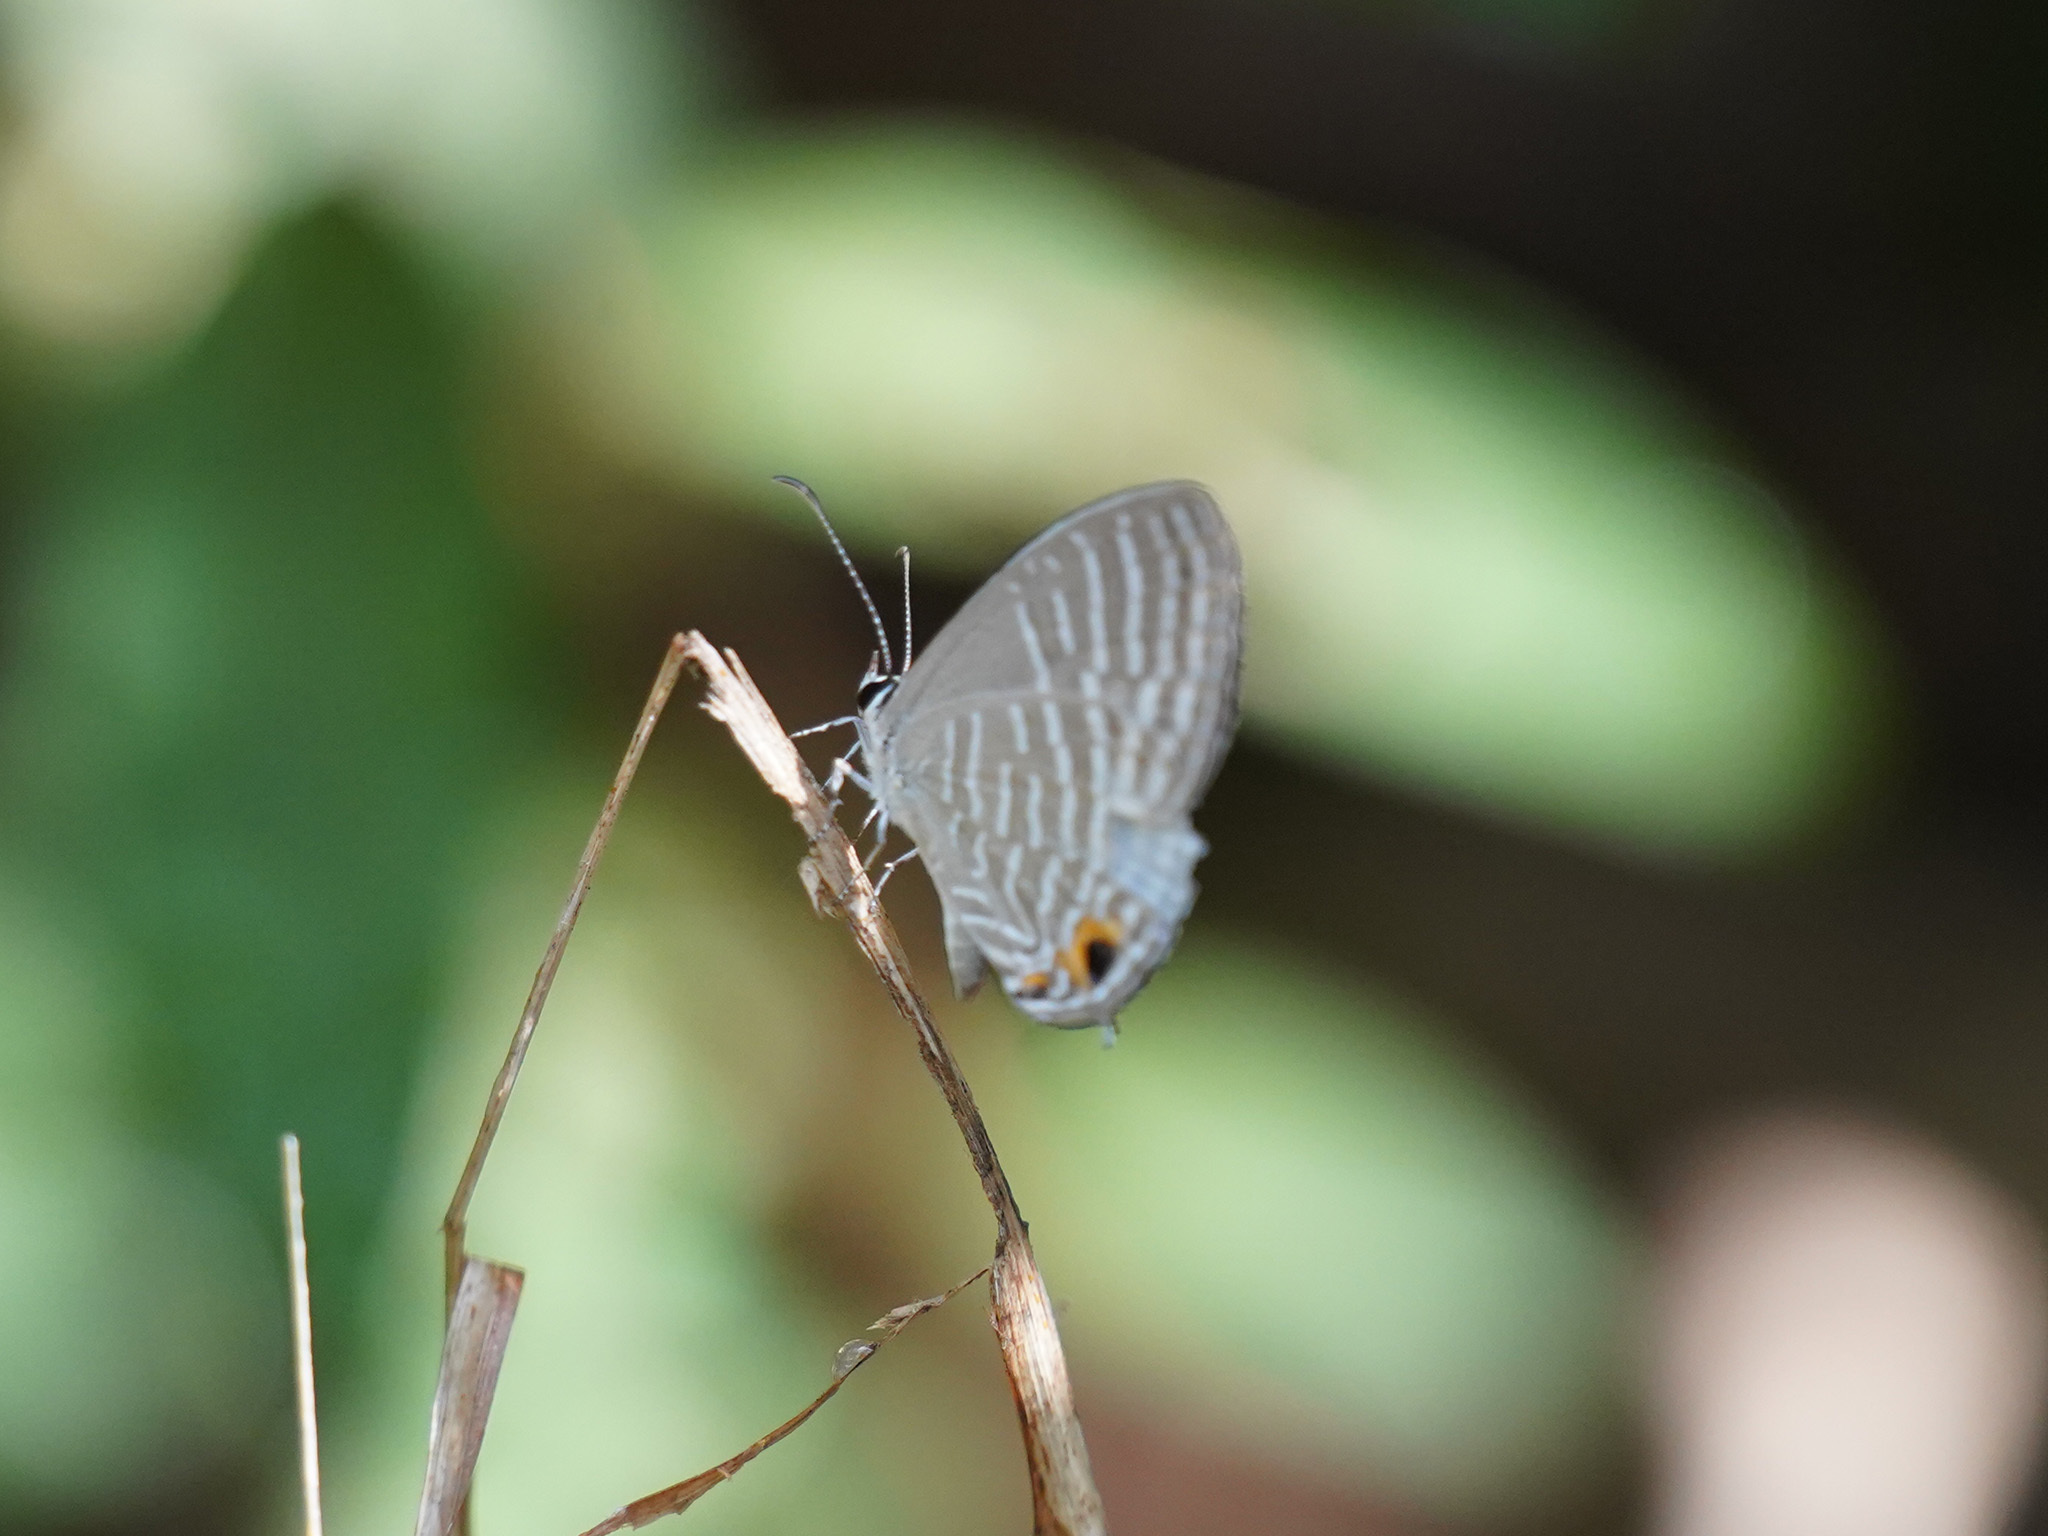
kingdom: Animalia
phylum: Arthropoda
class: Insecta
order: Lepidoptera
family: Lycaenidae
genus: Jamides
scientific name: Jamides celeno
